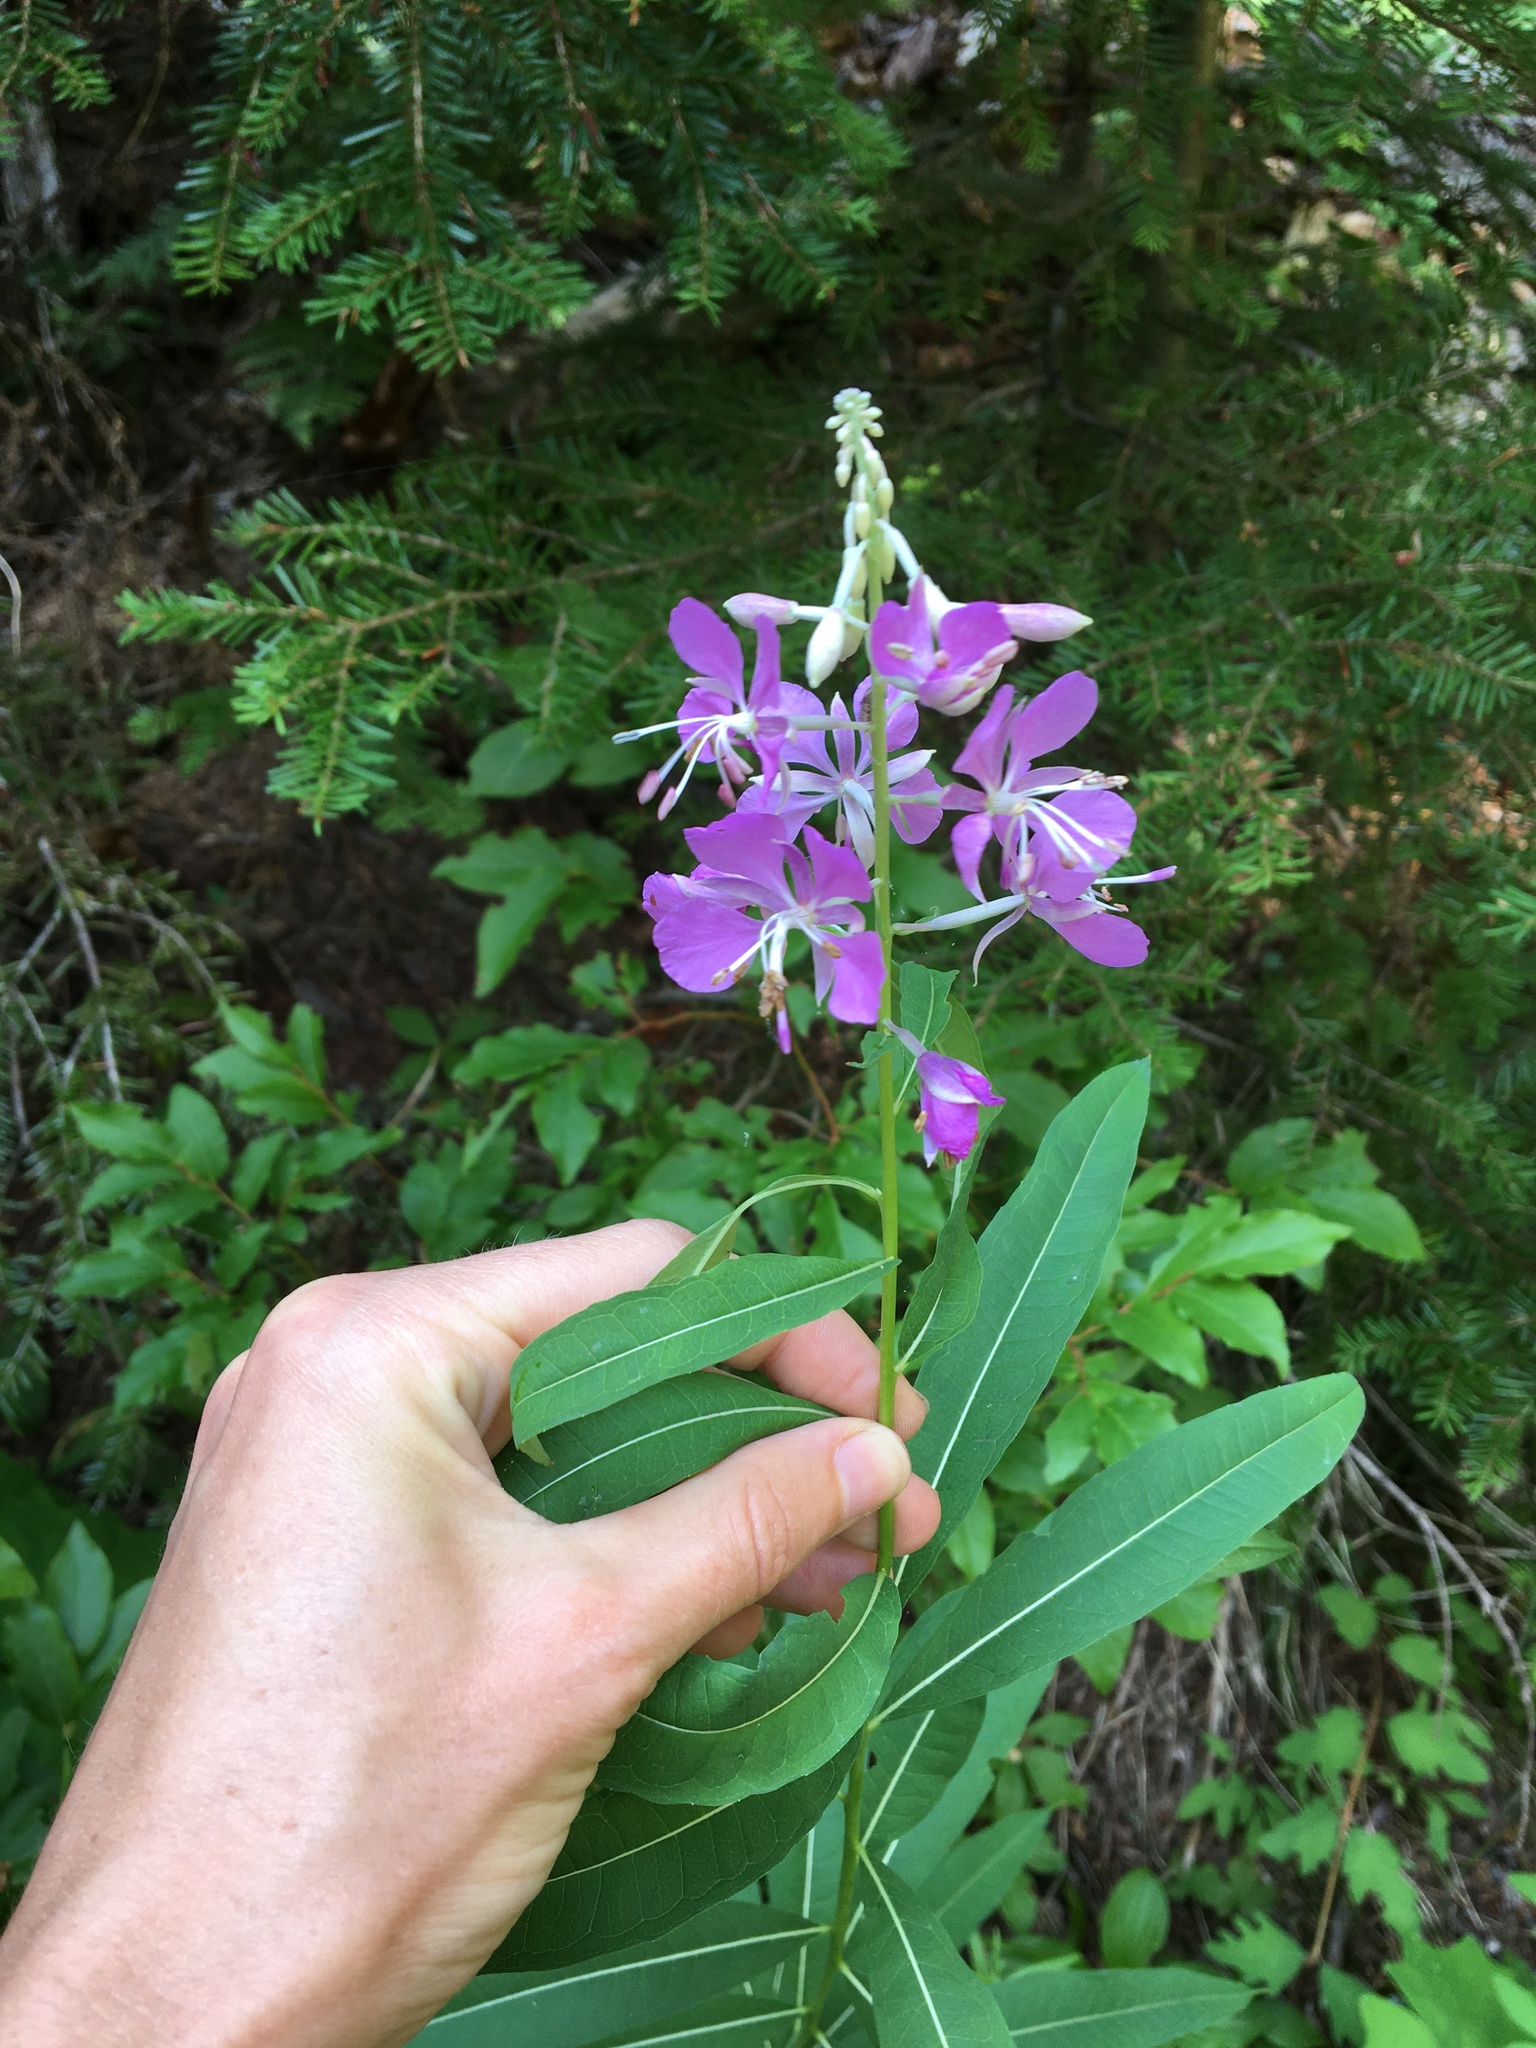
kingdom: Plantae
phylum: Tracheophyta
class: Magnoliopsida
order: Myrtales
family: Onagraceae
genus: Chamaenerion
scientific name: Chamaenerion angustifolium
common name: Fireweed
